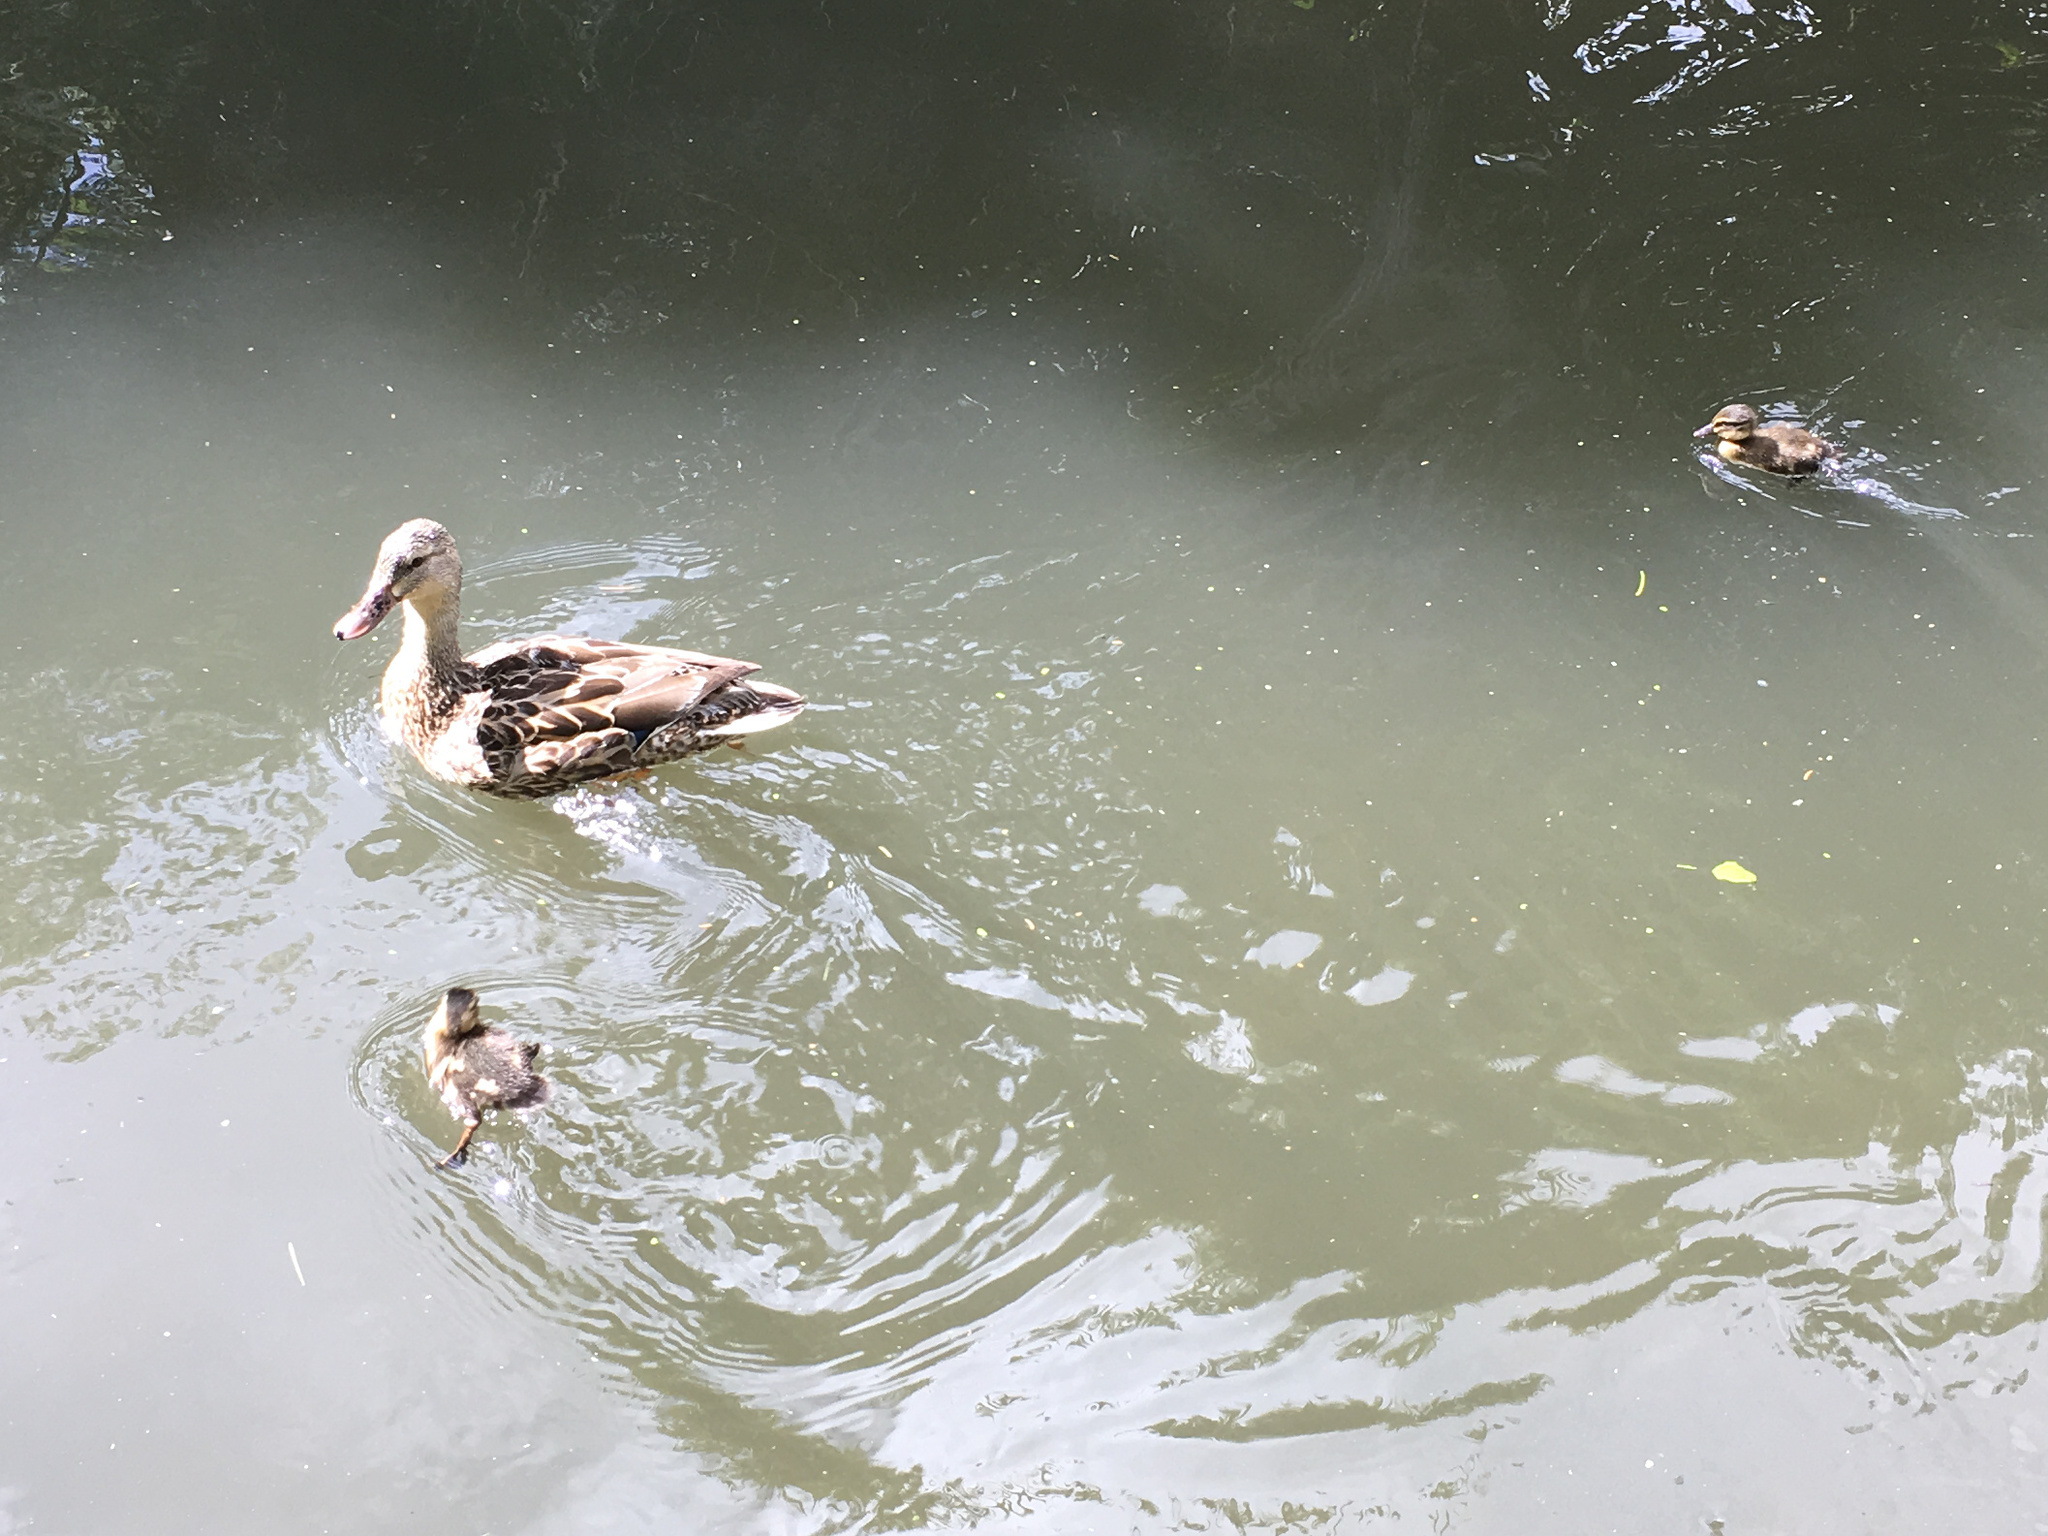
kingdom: Animalia
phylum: Chordata
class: Aves
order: Anseriformes
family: Anatidae
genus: Anas
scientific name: Anas
